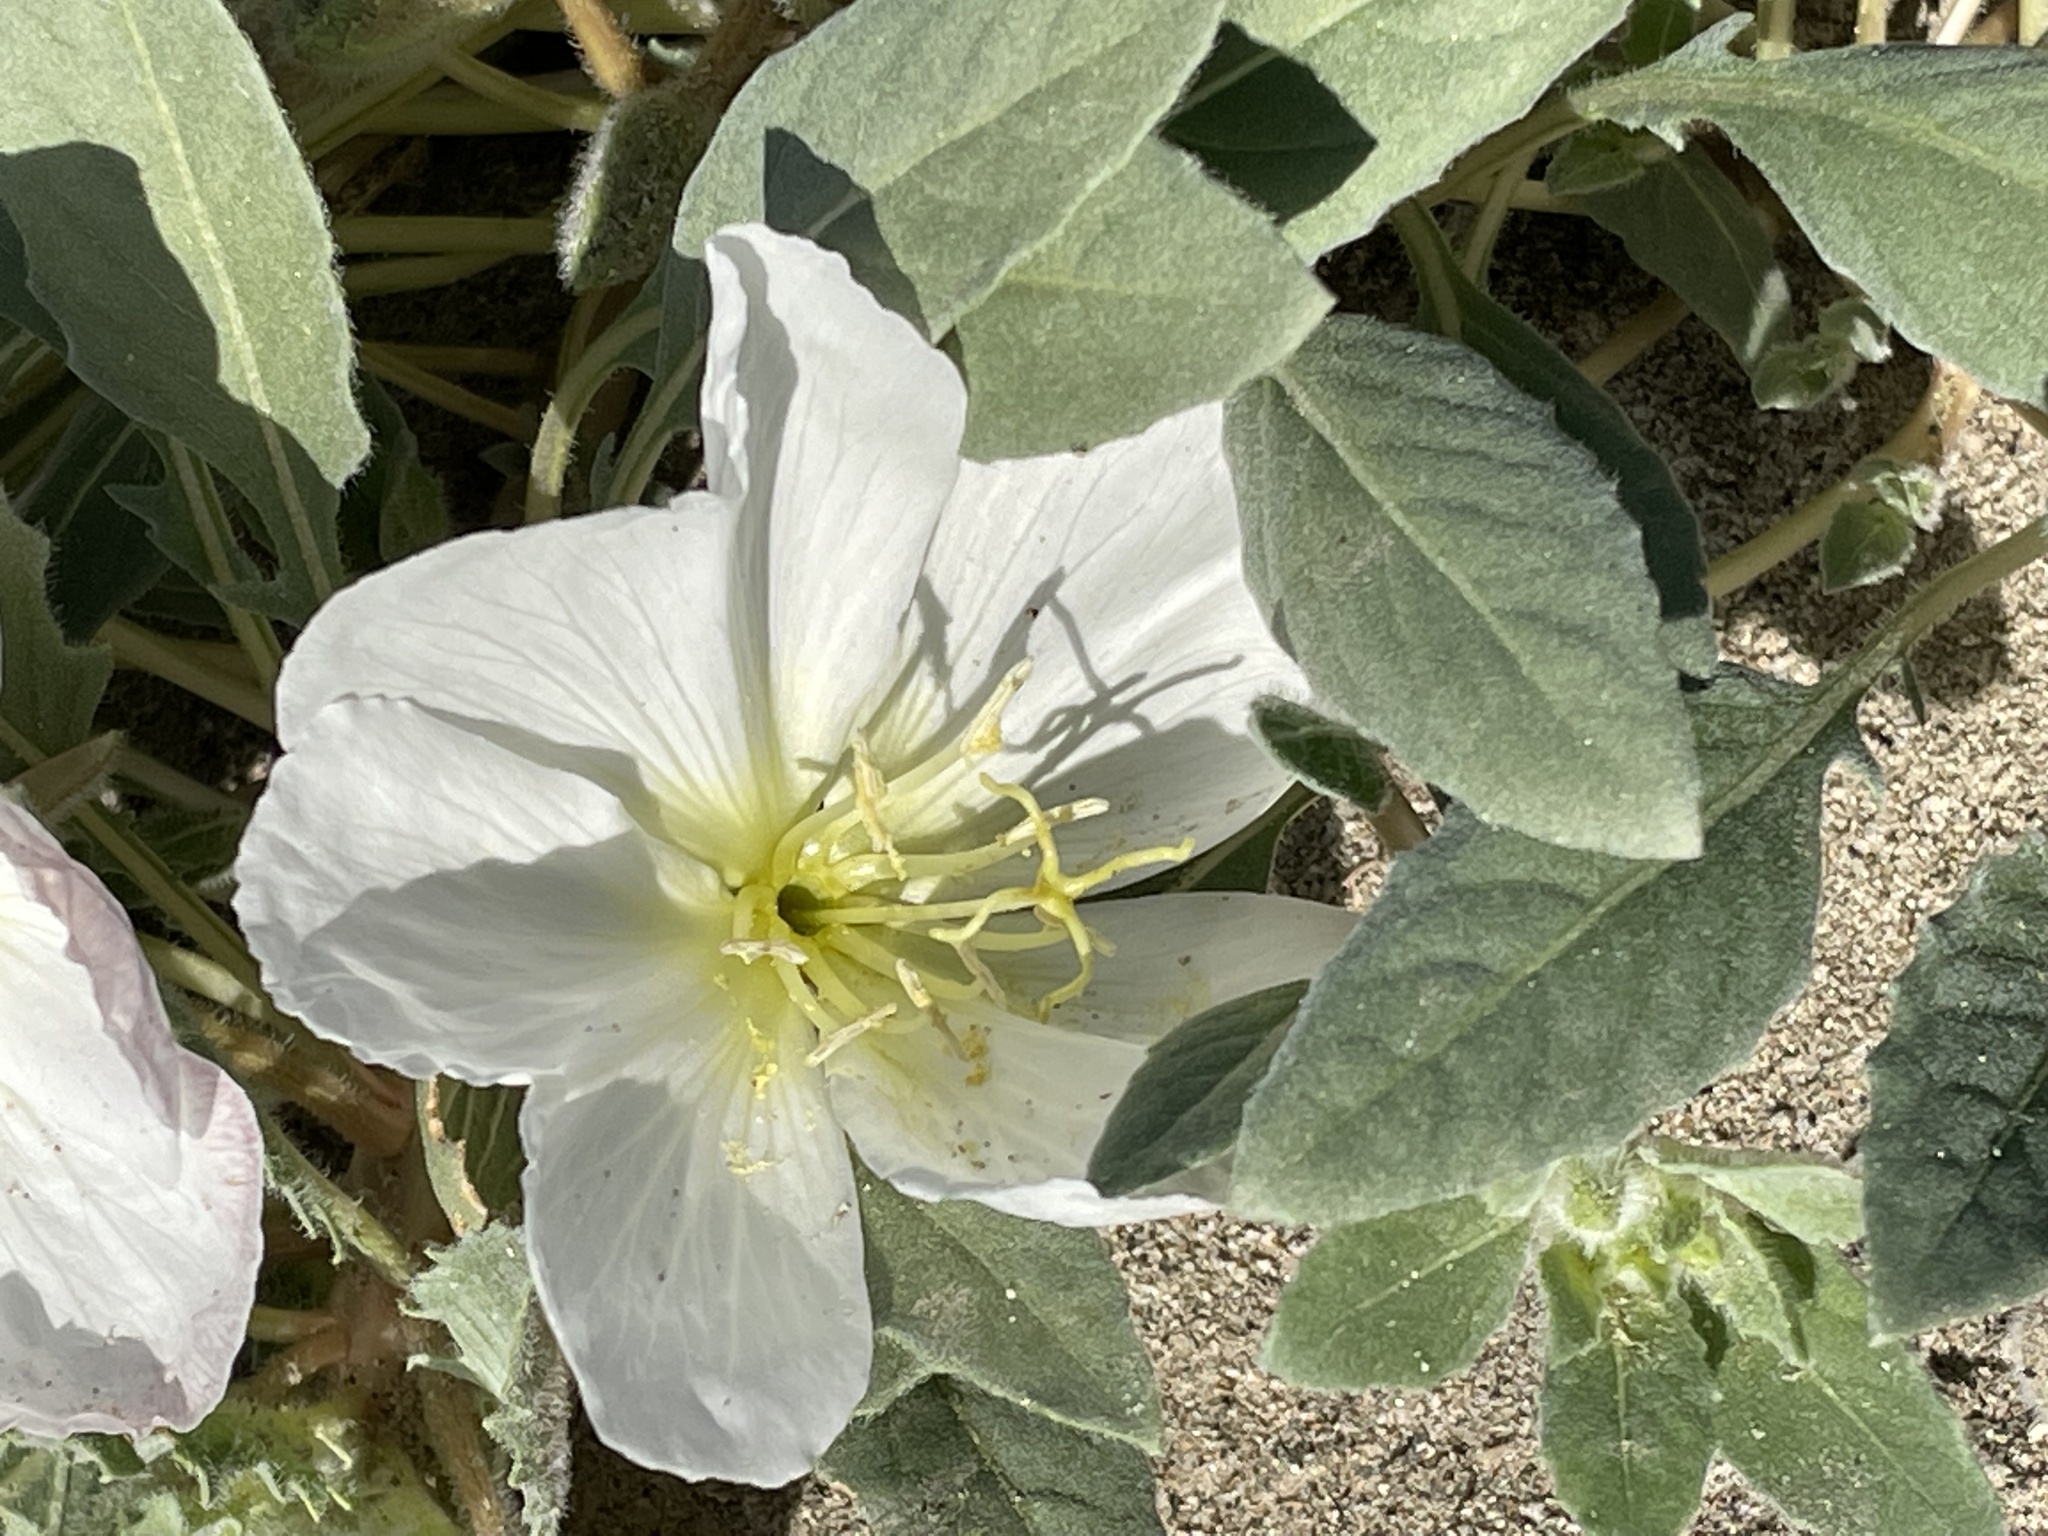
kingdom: Plantae
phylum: Tracheophyta
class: Magnoliopsida
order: Myrtales
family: Onagraceae
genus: Oenothera
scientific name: Oenothera deltoides
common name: Basket evening-primrose
